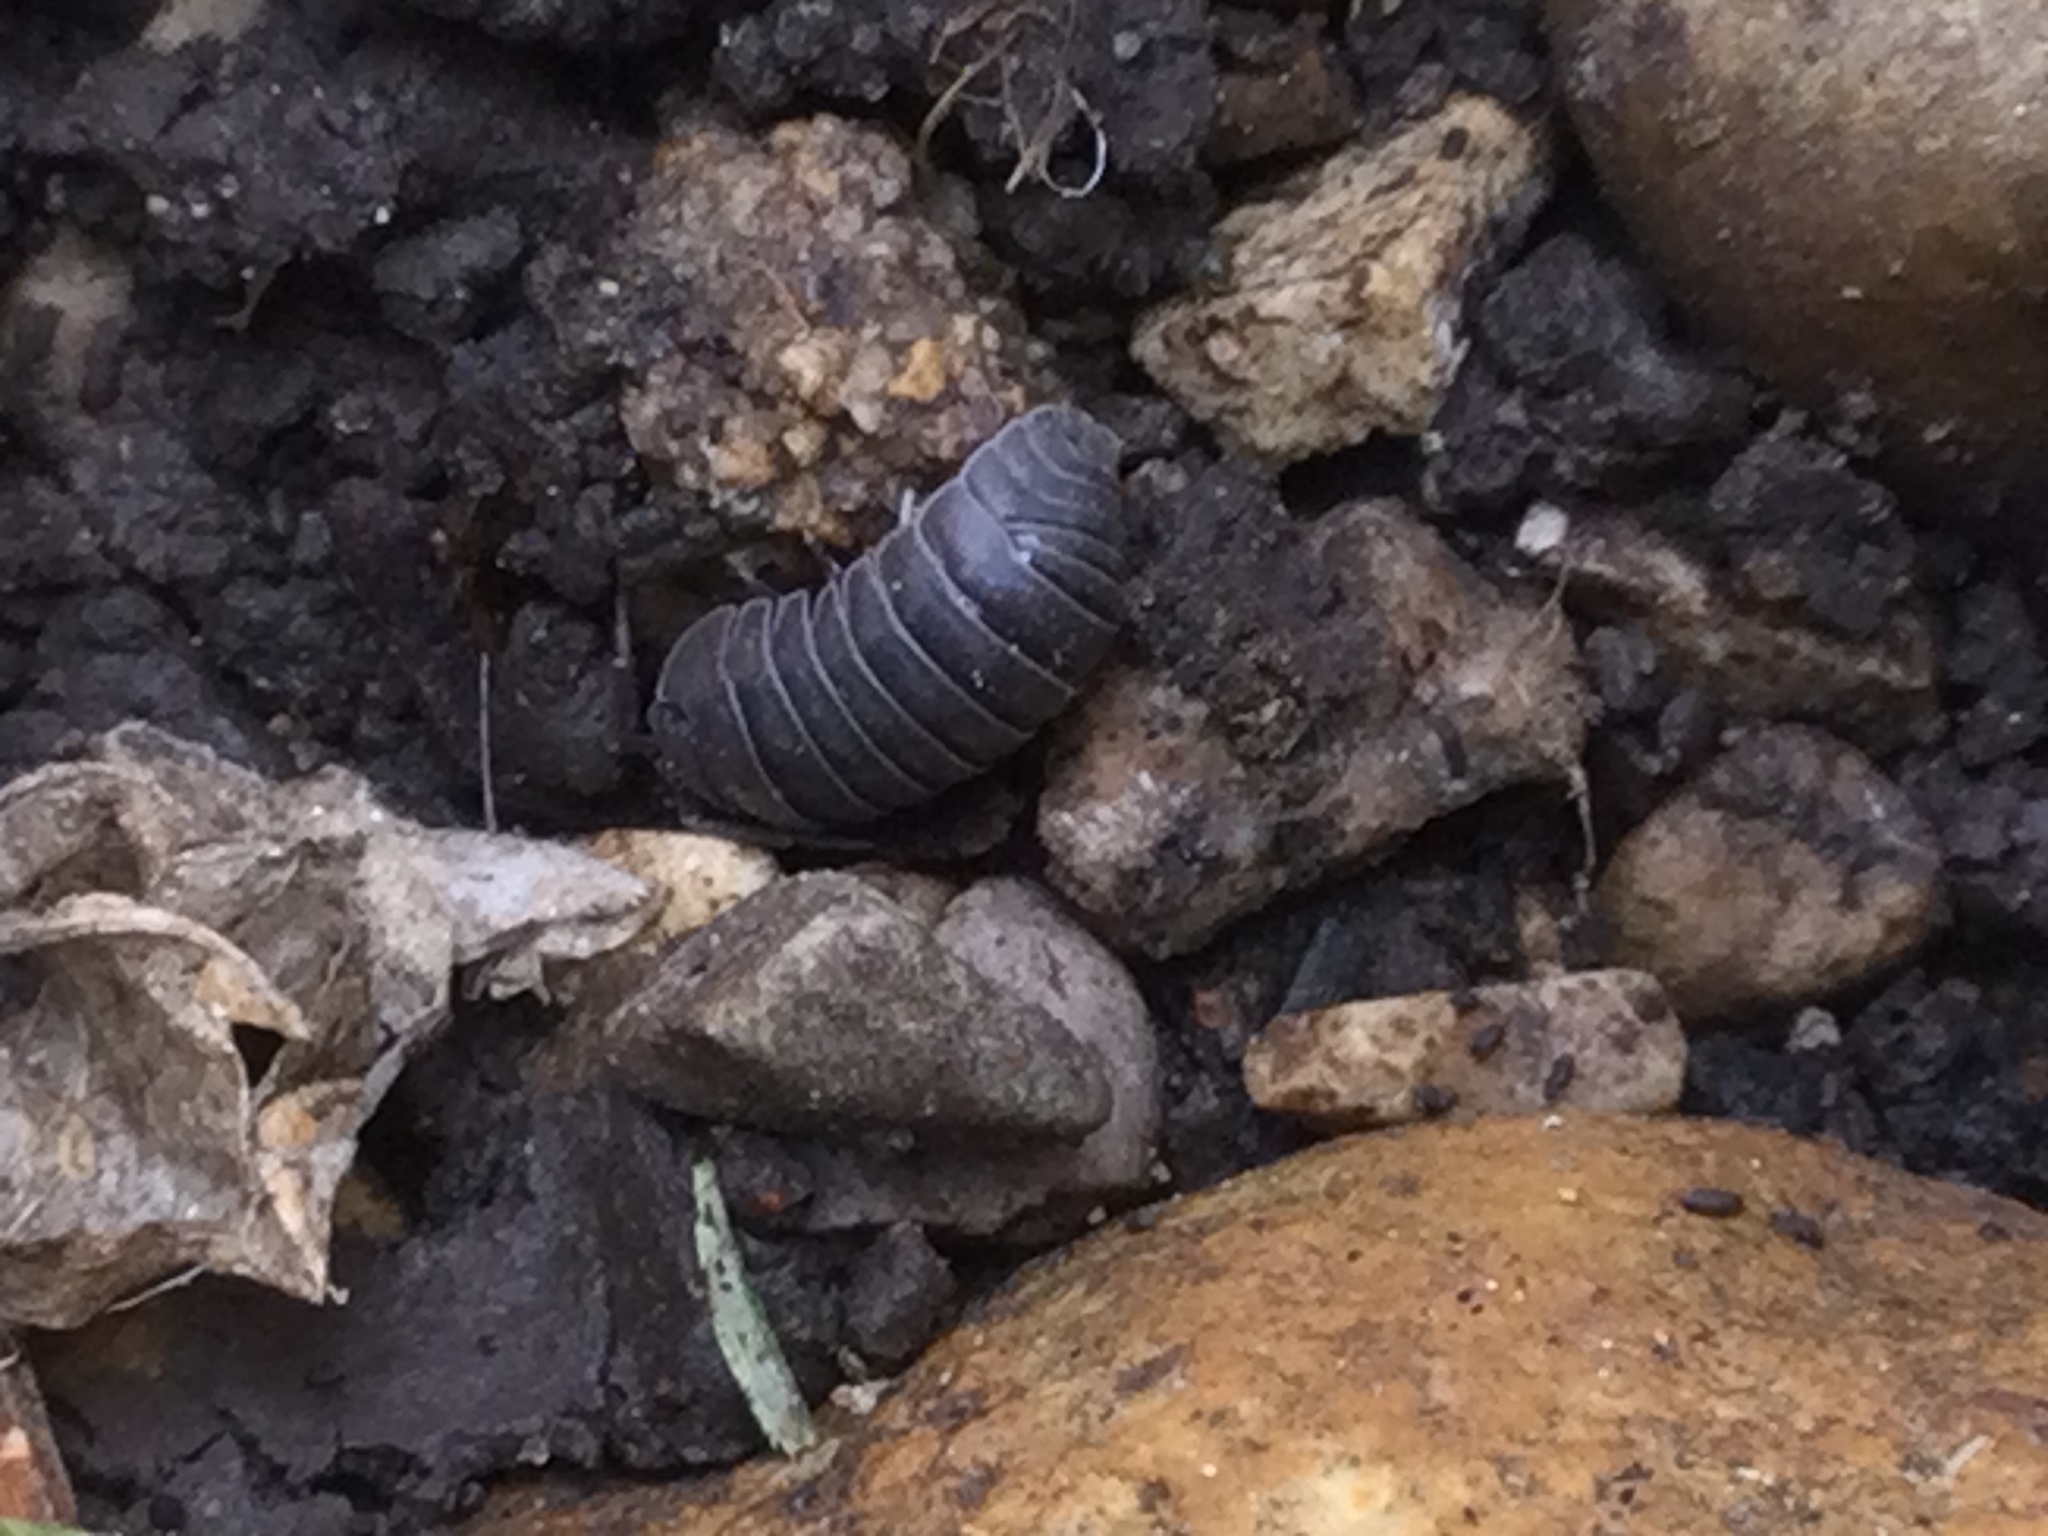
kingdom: Animalia
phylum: Arthropoda
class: Malacostraca
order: Isopoda
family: Armadillidiidae
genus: Armadillidium
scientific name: Armadillidium nasatum
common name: Isopod
